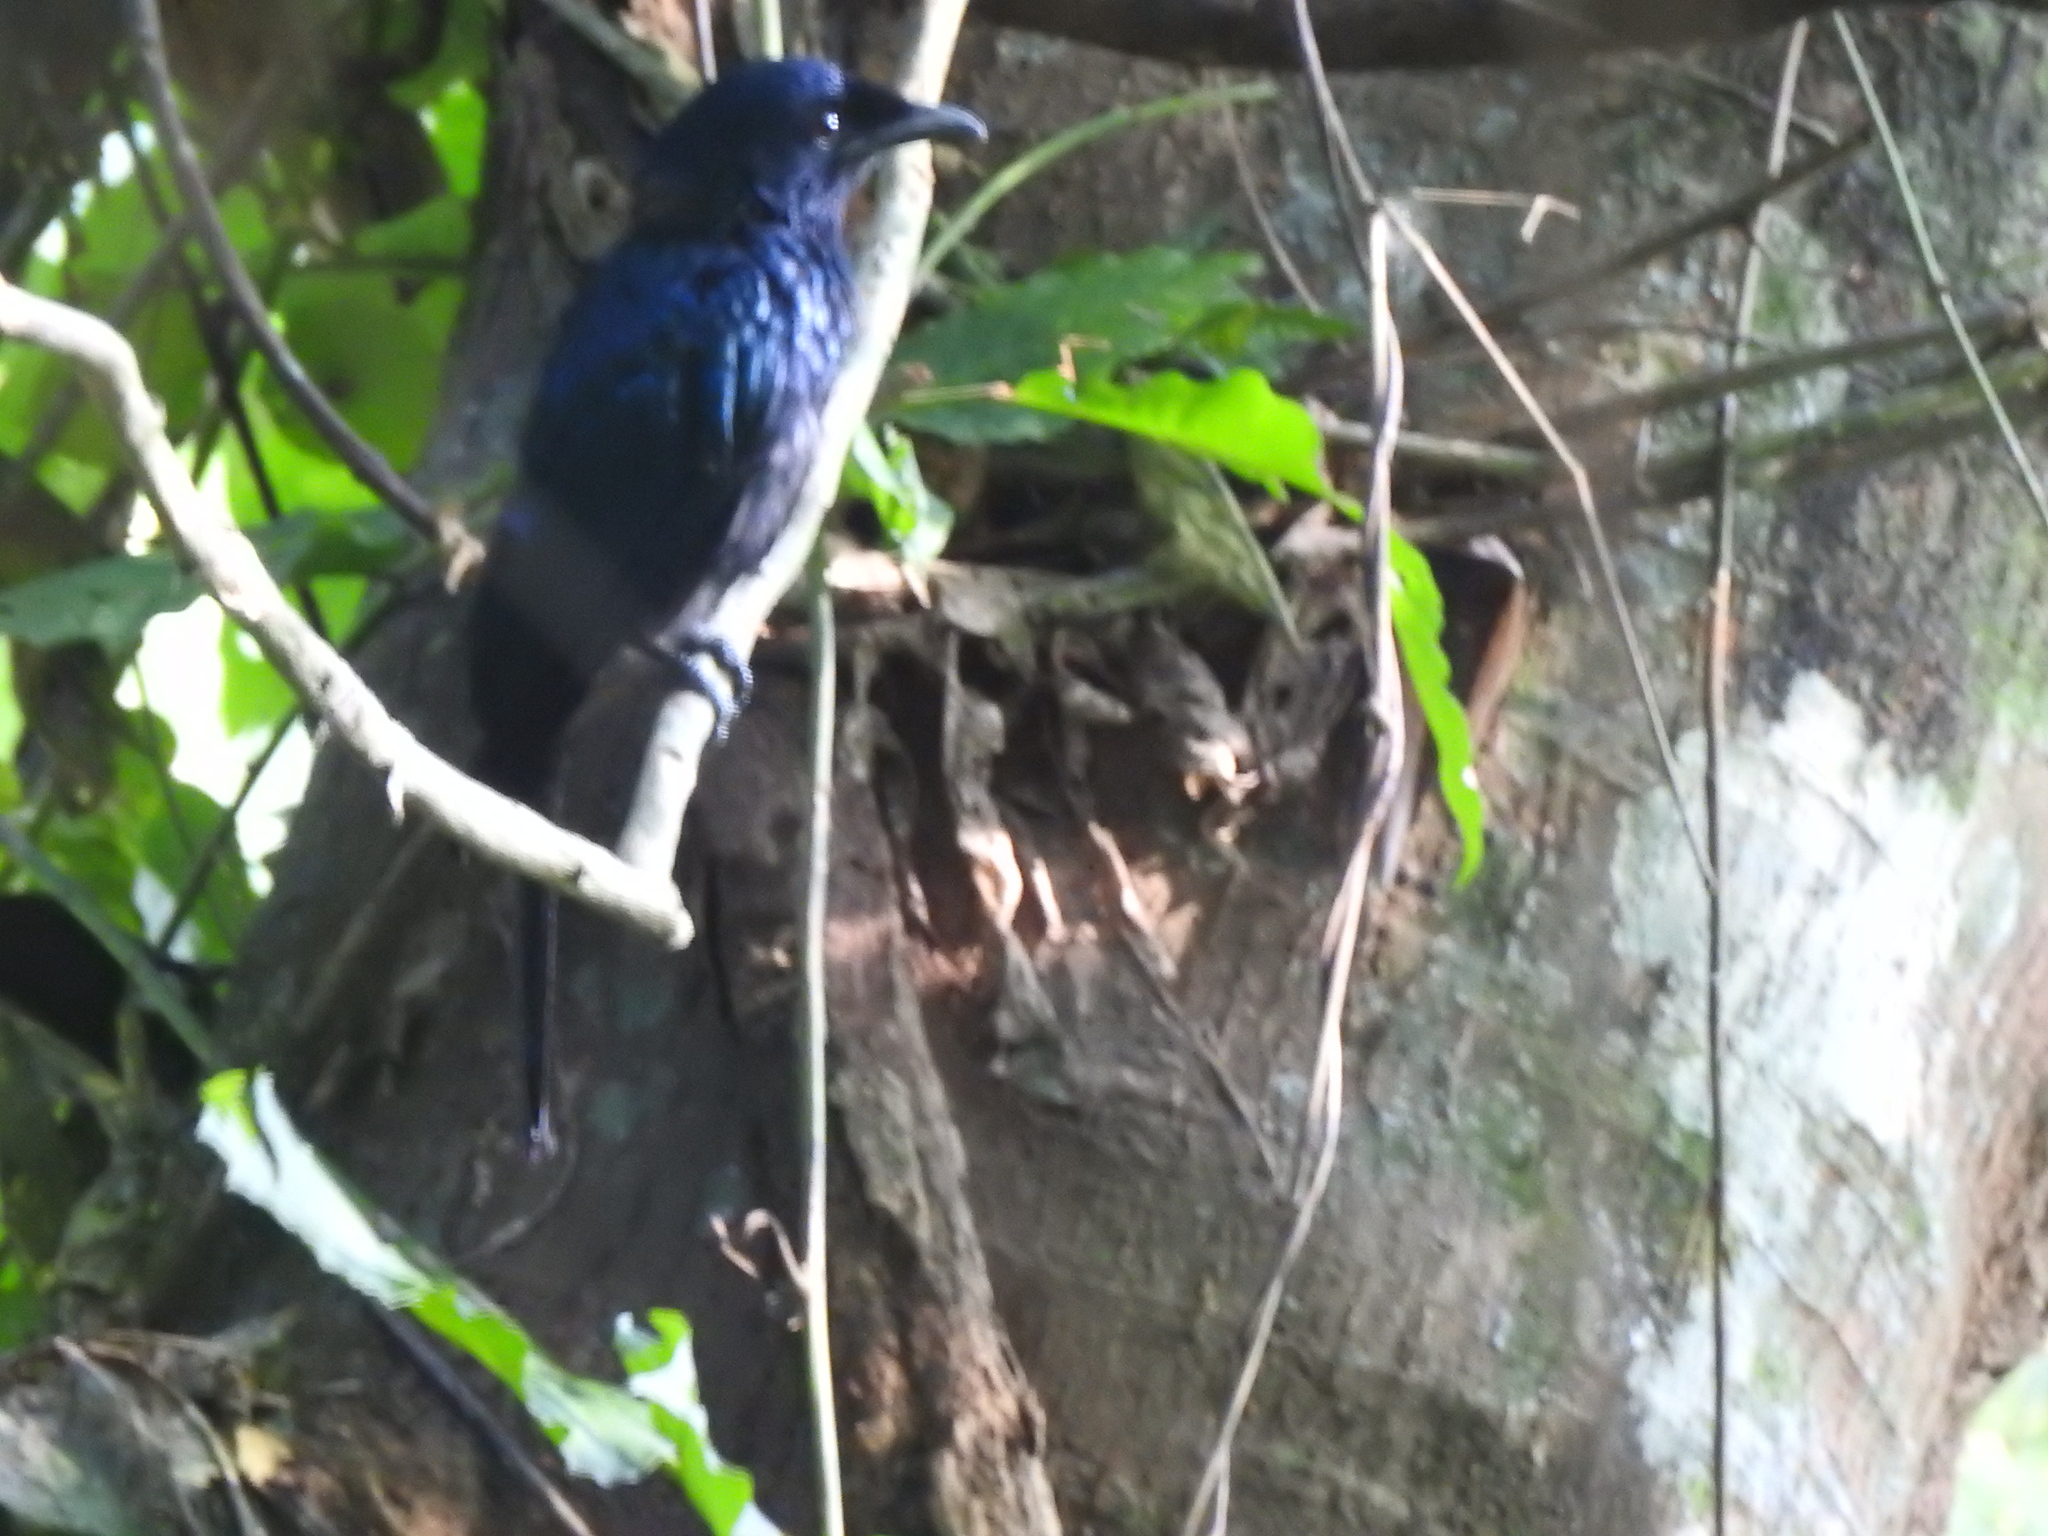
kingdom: Animalia
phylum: Chordata
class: Aves
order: Passeriformes
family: Dicruridae
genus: Dicrurus
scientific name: Dicrurus balicassius
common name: Balicassiao
